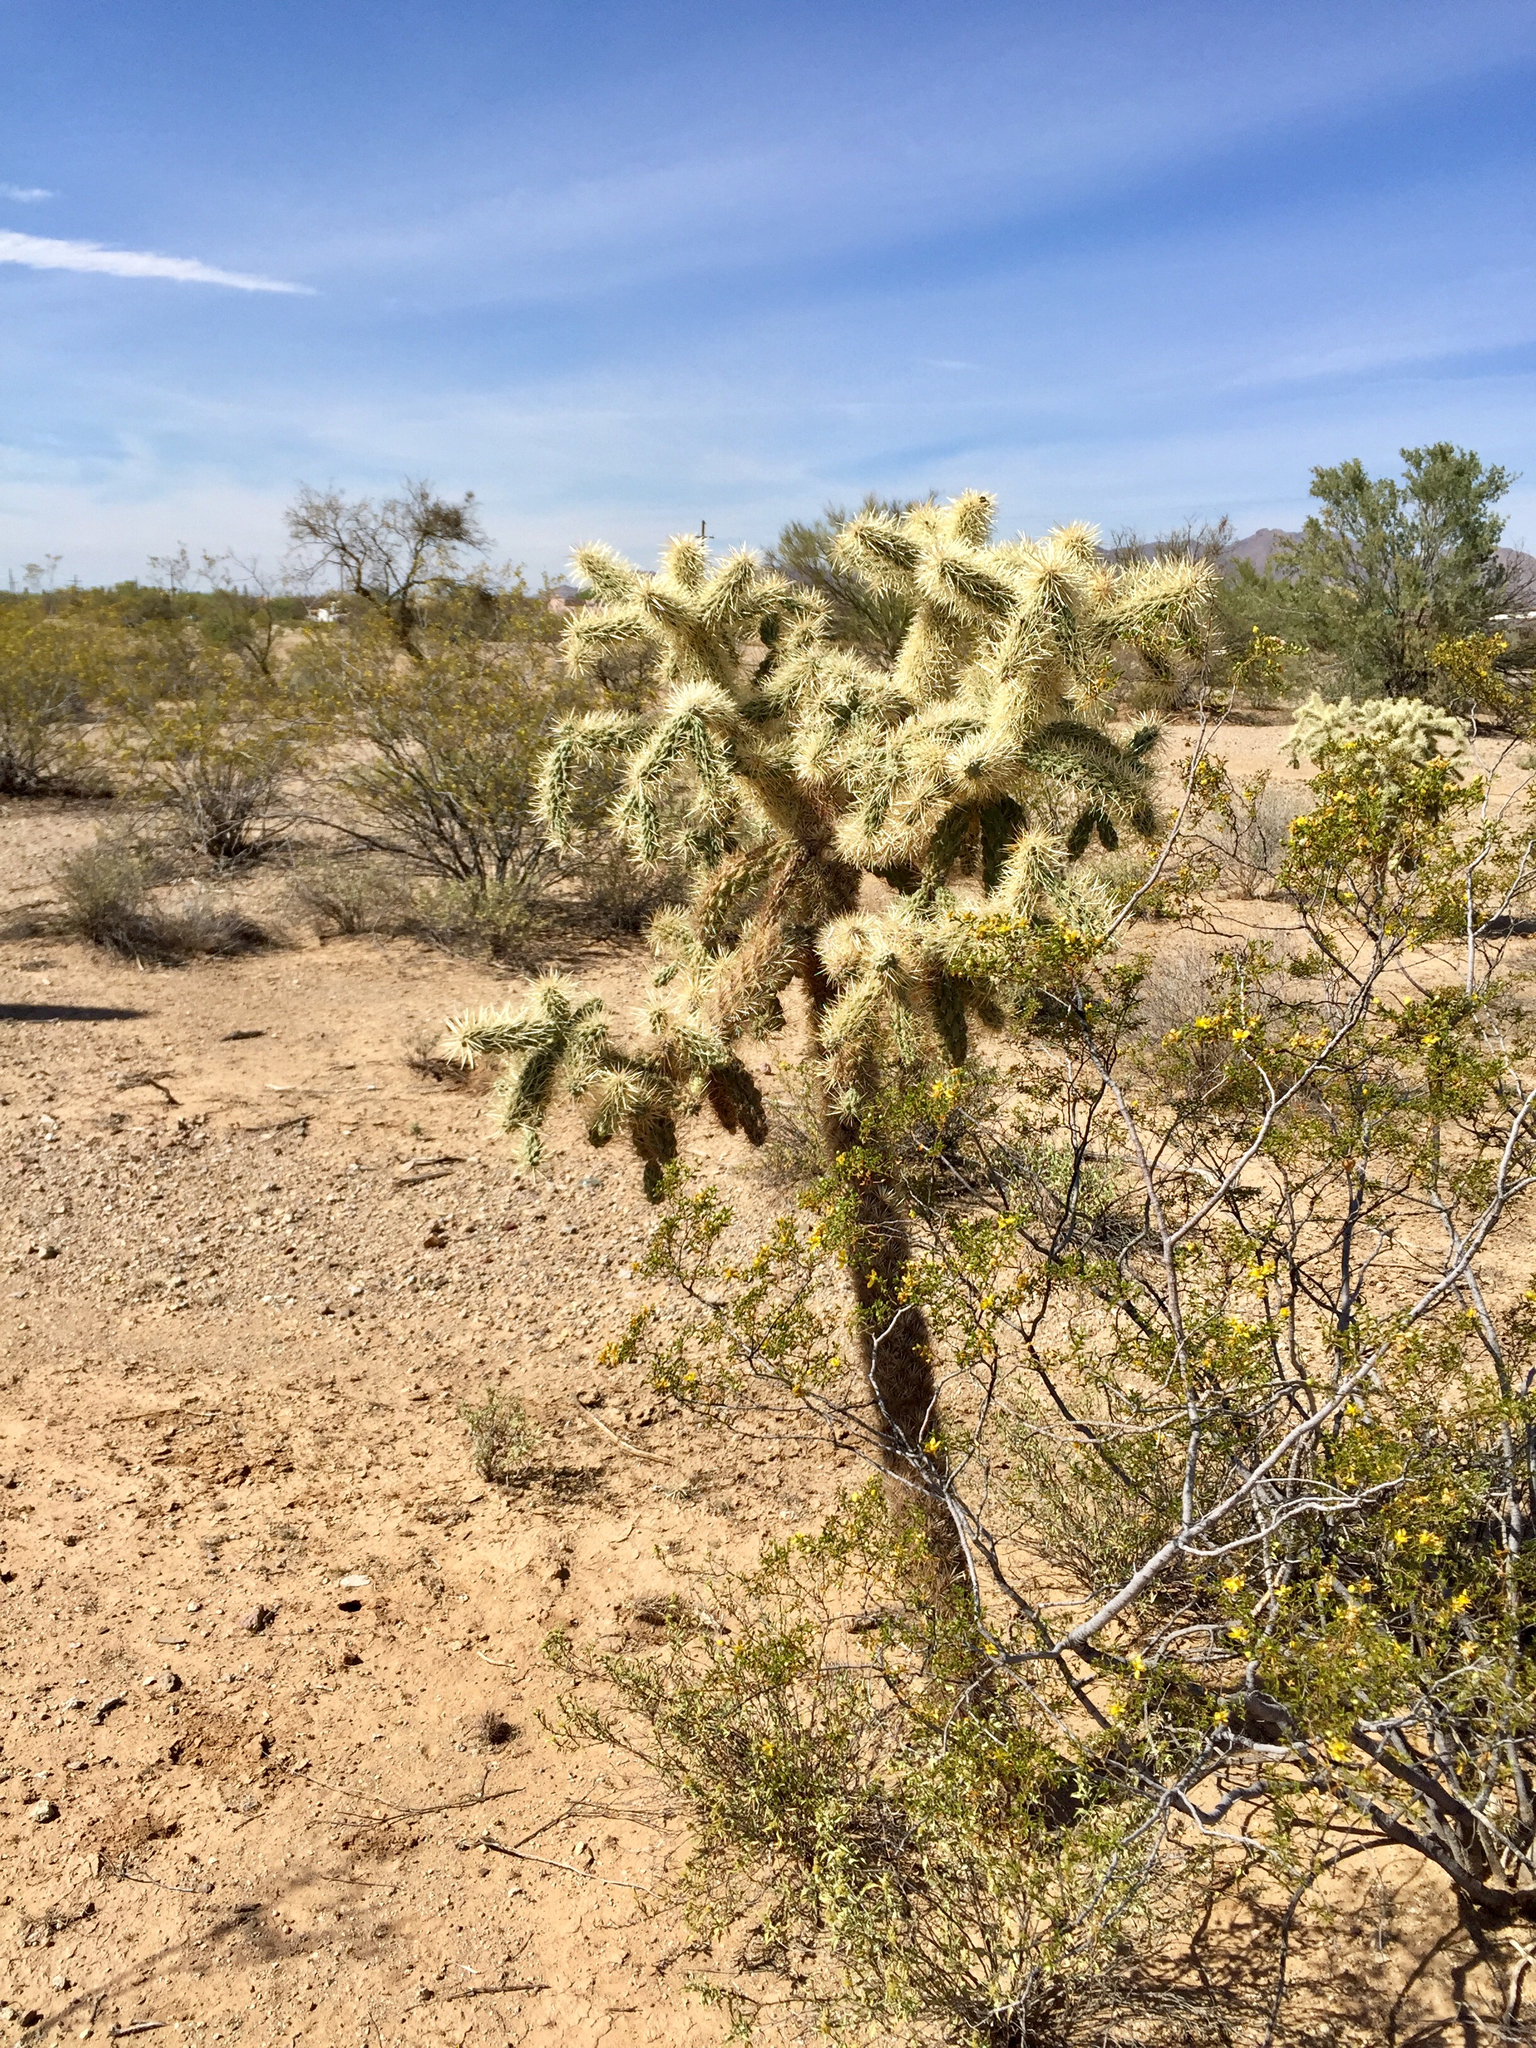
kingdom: Plantae
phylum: Tracheophyta
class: Magnoliopsida
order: Caryophyllales
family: Cactaceae
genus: Cylindropuntia
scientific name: Cylindropuntia fulgida
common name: Jumping cholla
